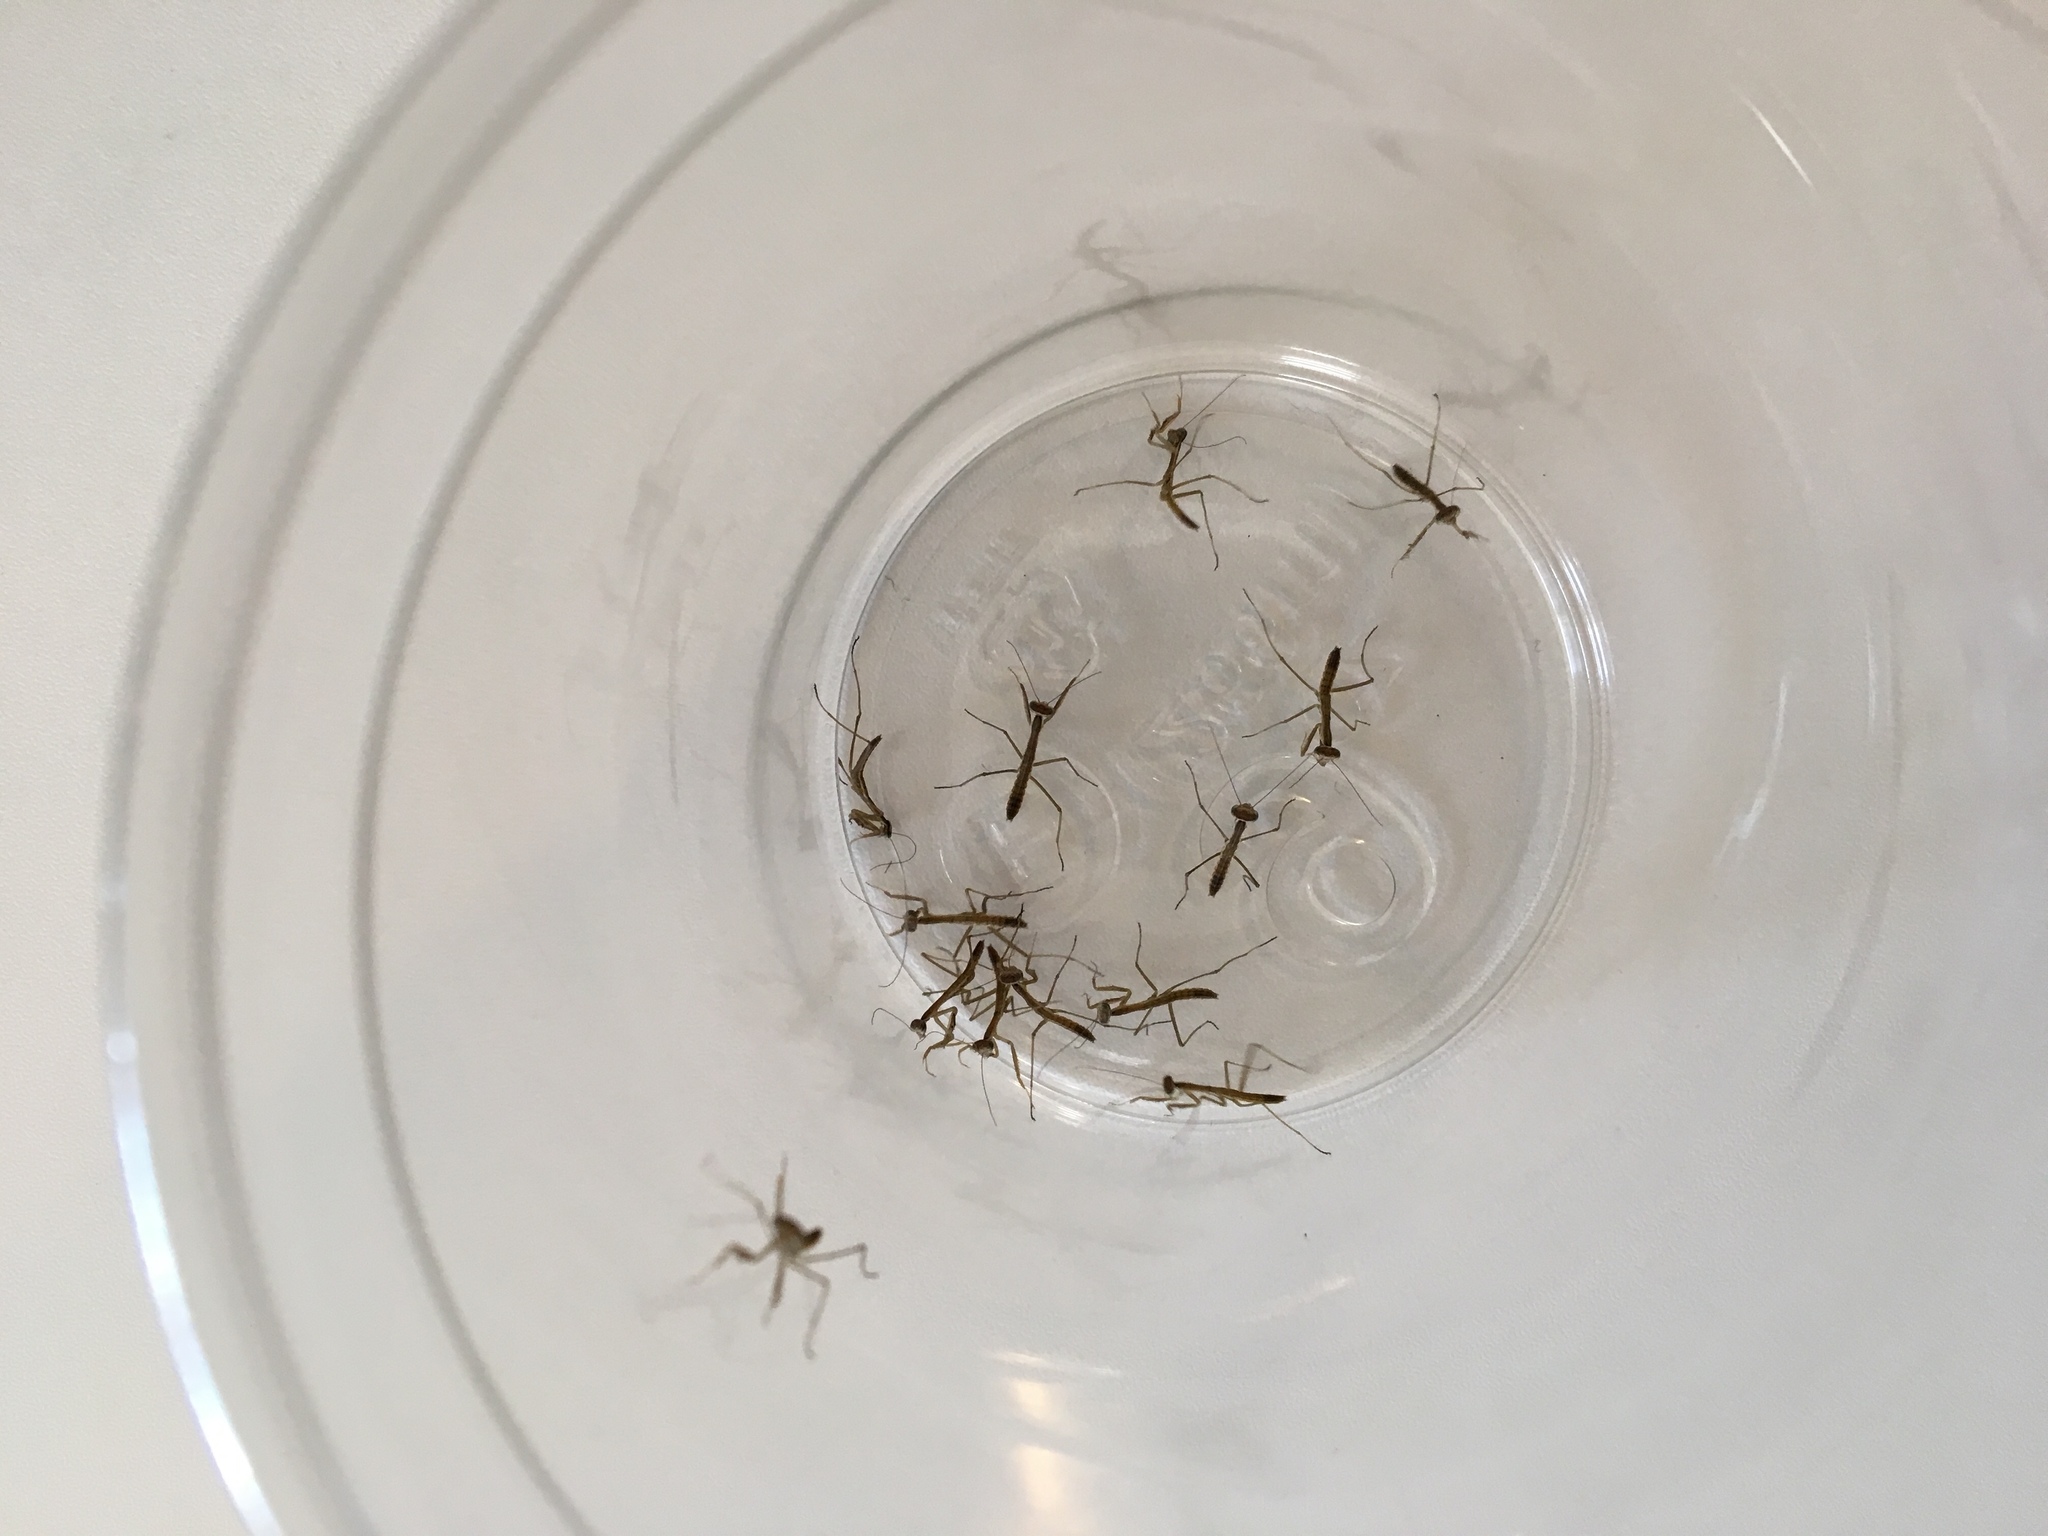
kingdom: Animalia
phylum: Arthropoda
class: Insecta
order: Mantodea
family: Mantidae
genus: Tenodera
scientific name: Tenodera sinensis
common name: Chinese mantis
